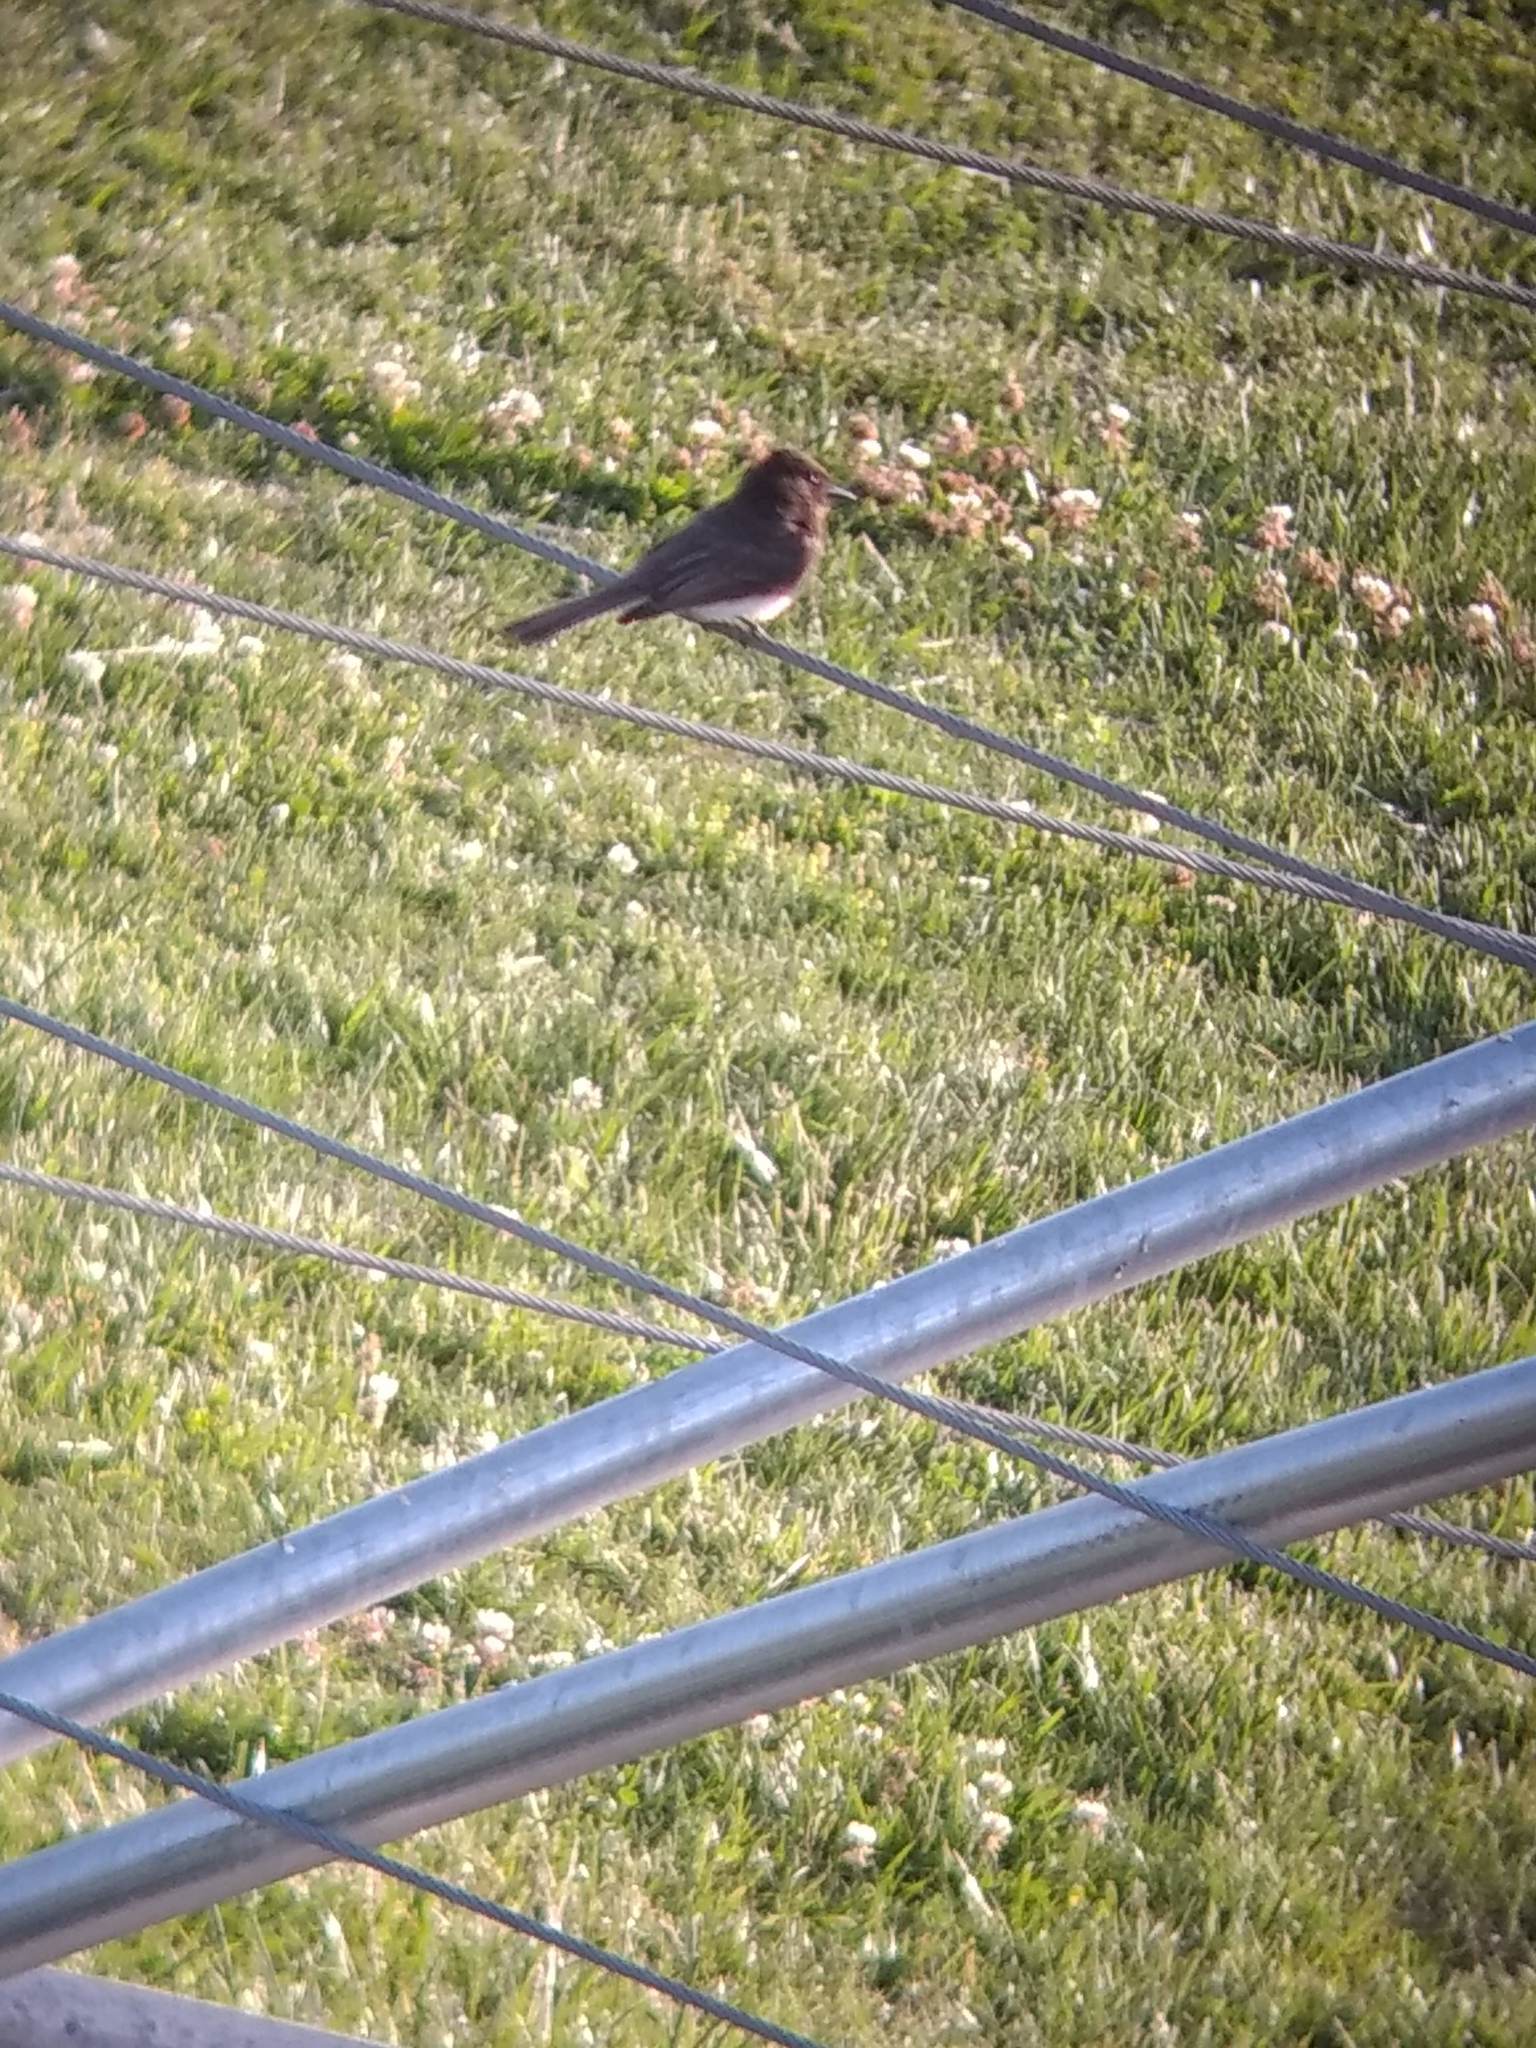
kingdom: Animalia
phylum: Chordata
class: Aves
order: Passeriformes
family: Tyrannidae
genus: Sayornis
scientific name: Sayornis nigricans
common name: Black phoebe
